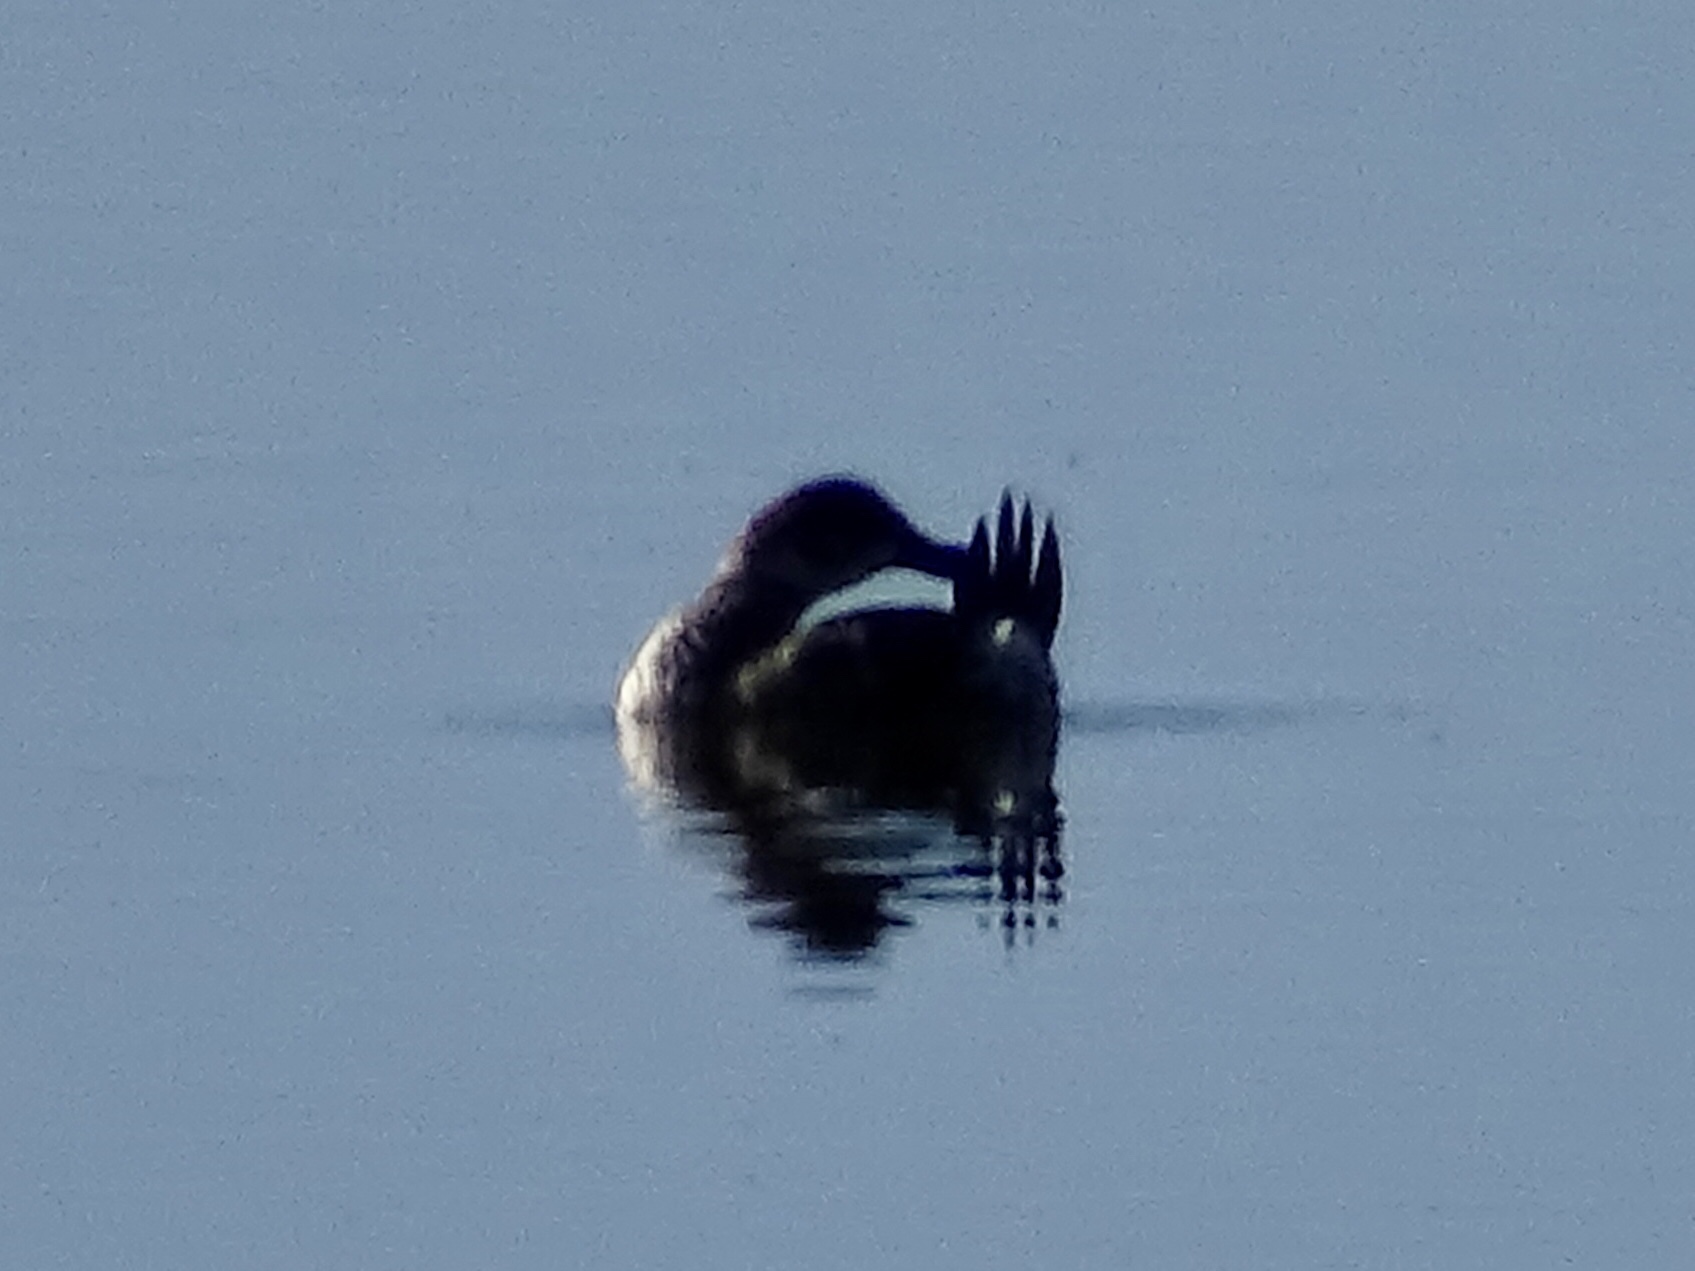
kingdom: Animalia
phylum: Chordata
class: Aves
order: Anseriformes
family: Anatidae
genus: Oxyura
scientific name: Oxyura jamaicensis
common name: Ruddy duck
